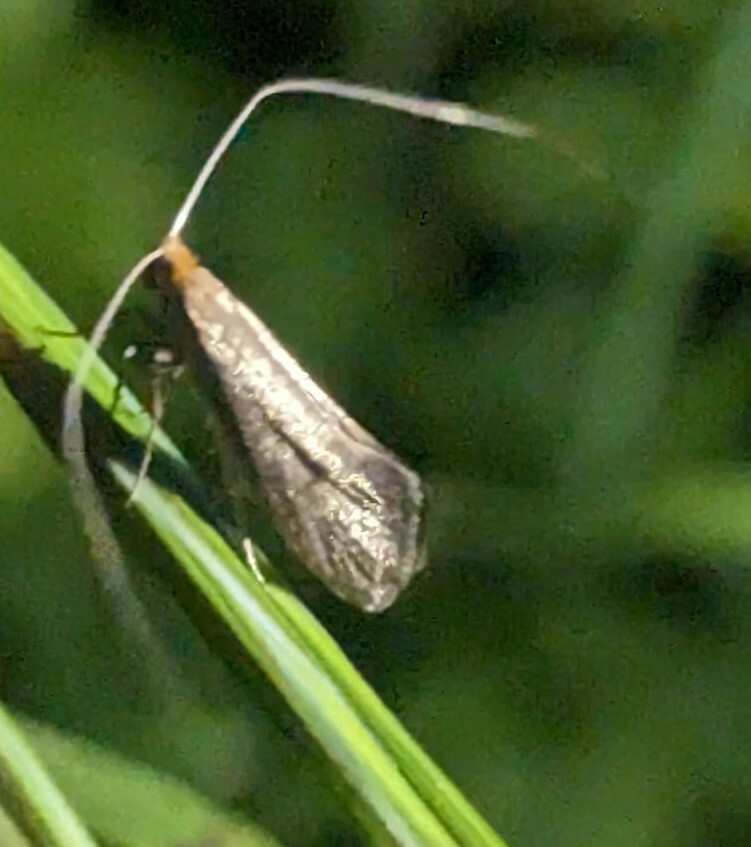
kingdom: Animalia
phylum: Arthropoda
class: Insecta
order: Lepidoptera
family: Adelidae
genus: Nematopogon
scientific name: Nematopogon swammerdamella
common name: Large long-horn
